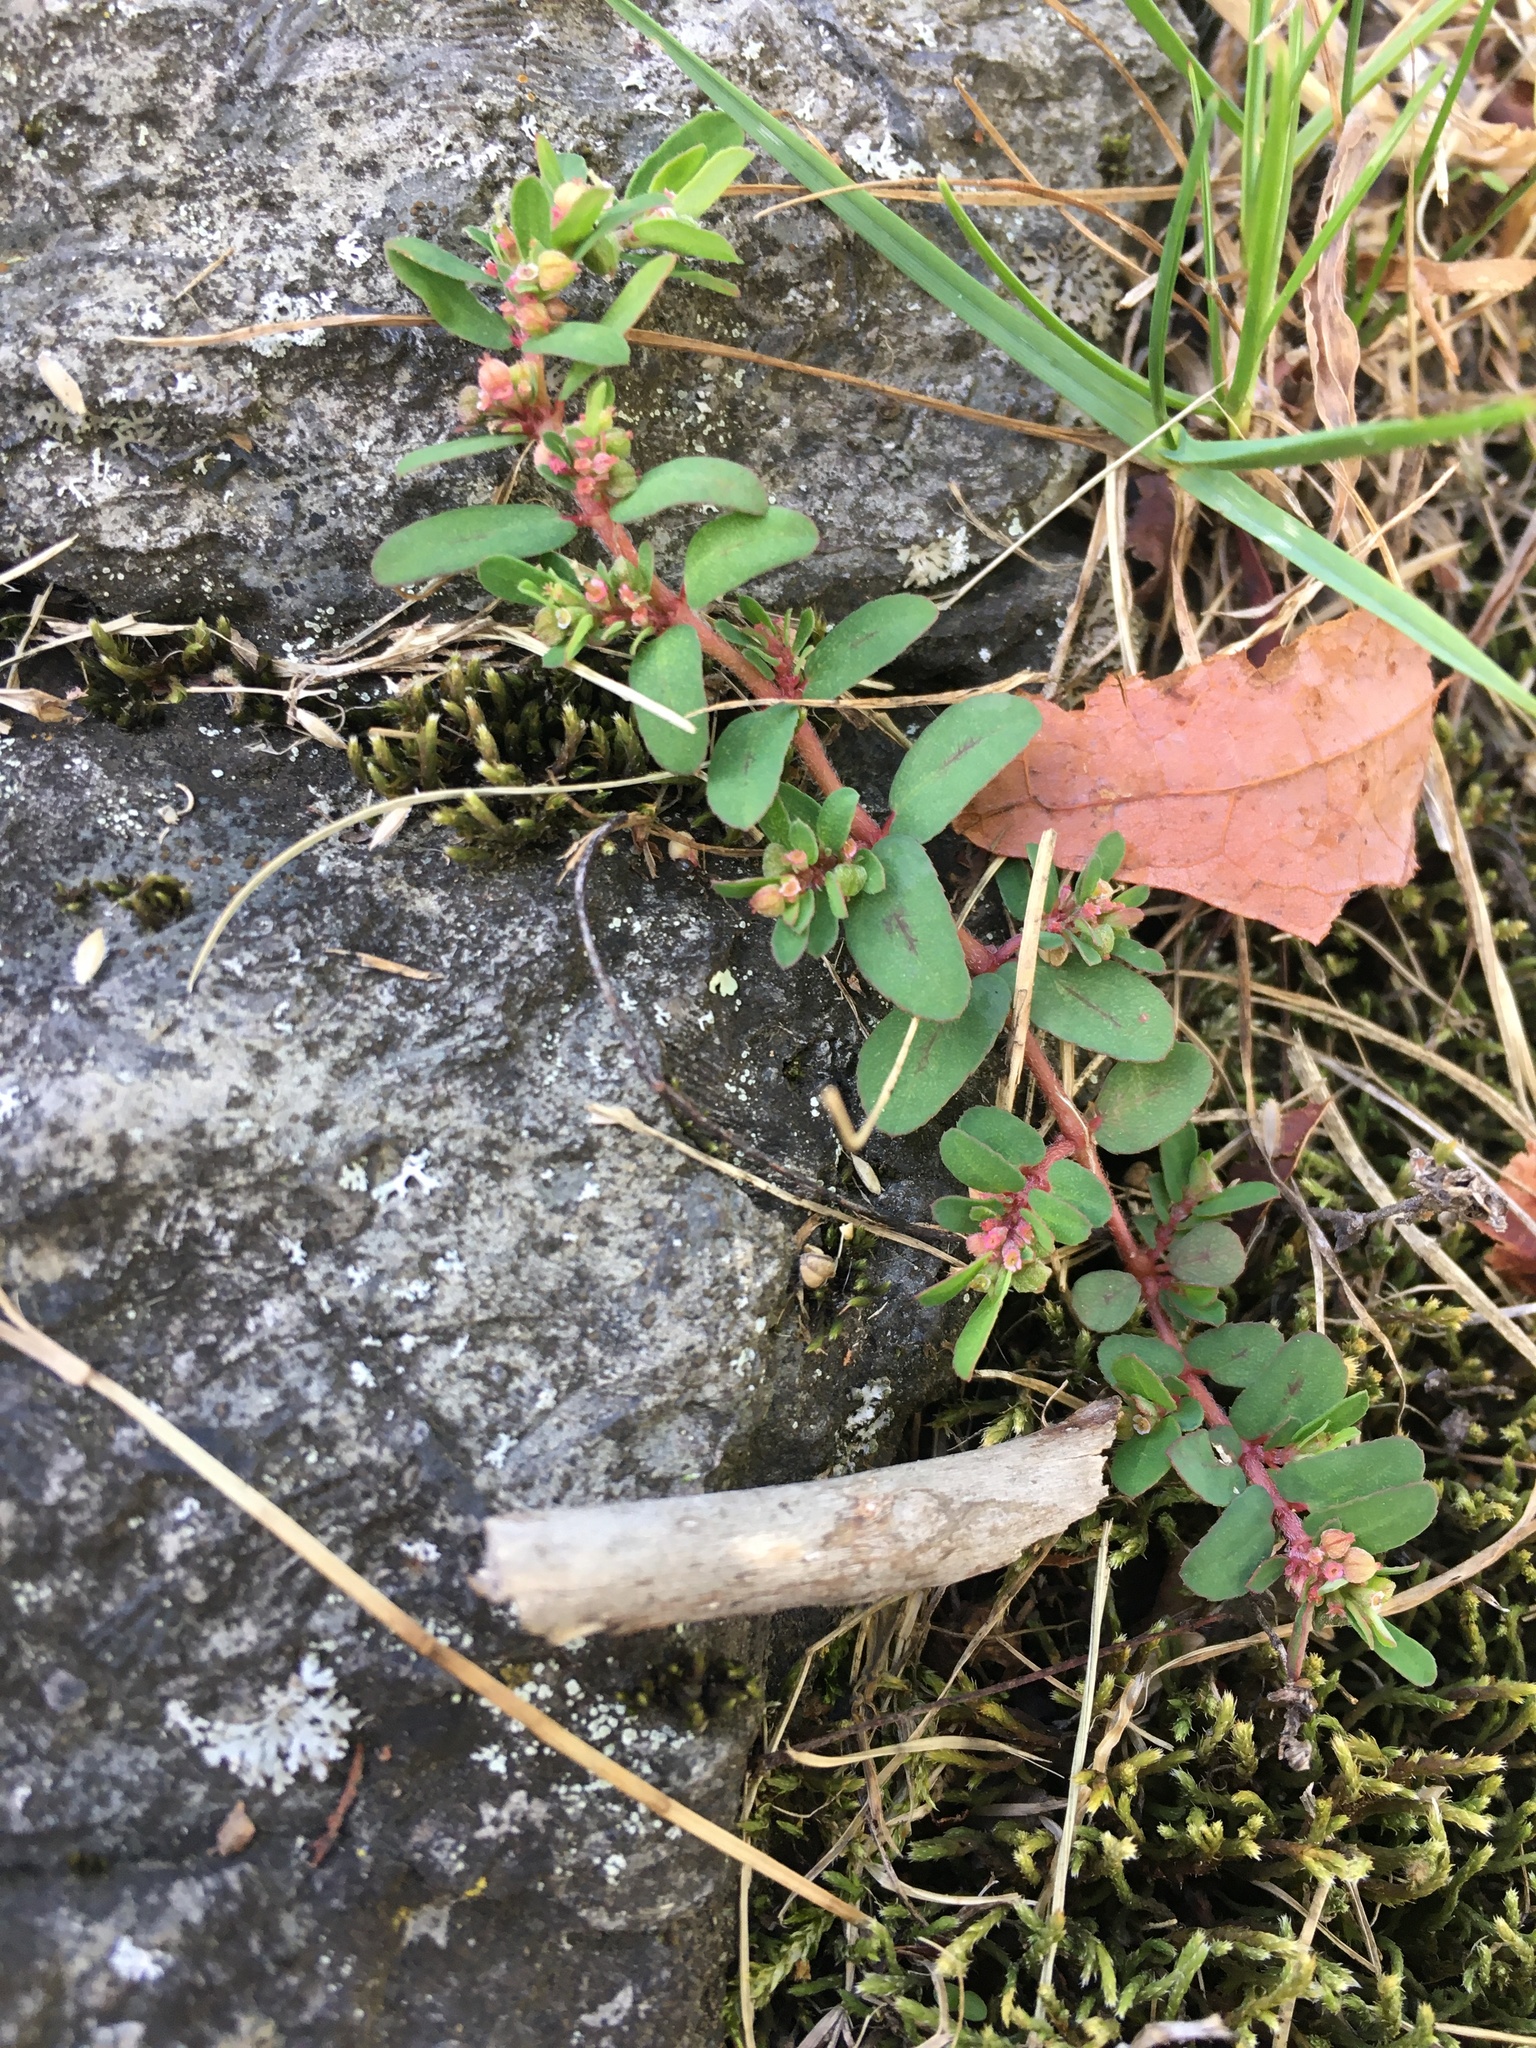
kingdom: Plantae
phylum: Tracheophyta
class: Magnoliopsida
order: Malpighiales
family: Euphorbiaceae
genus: Euphorbia
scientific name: Euphorbia maculata
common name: Spotted spurge
